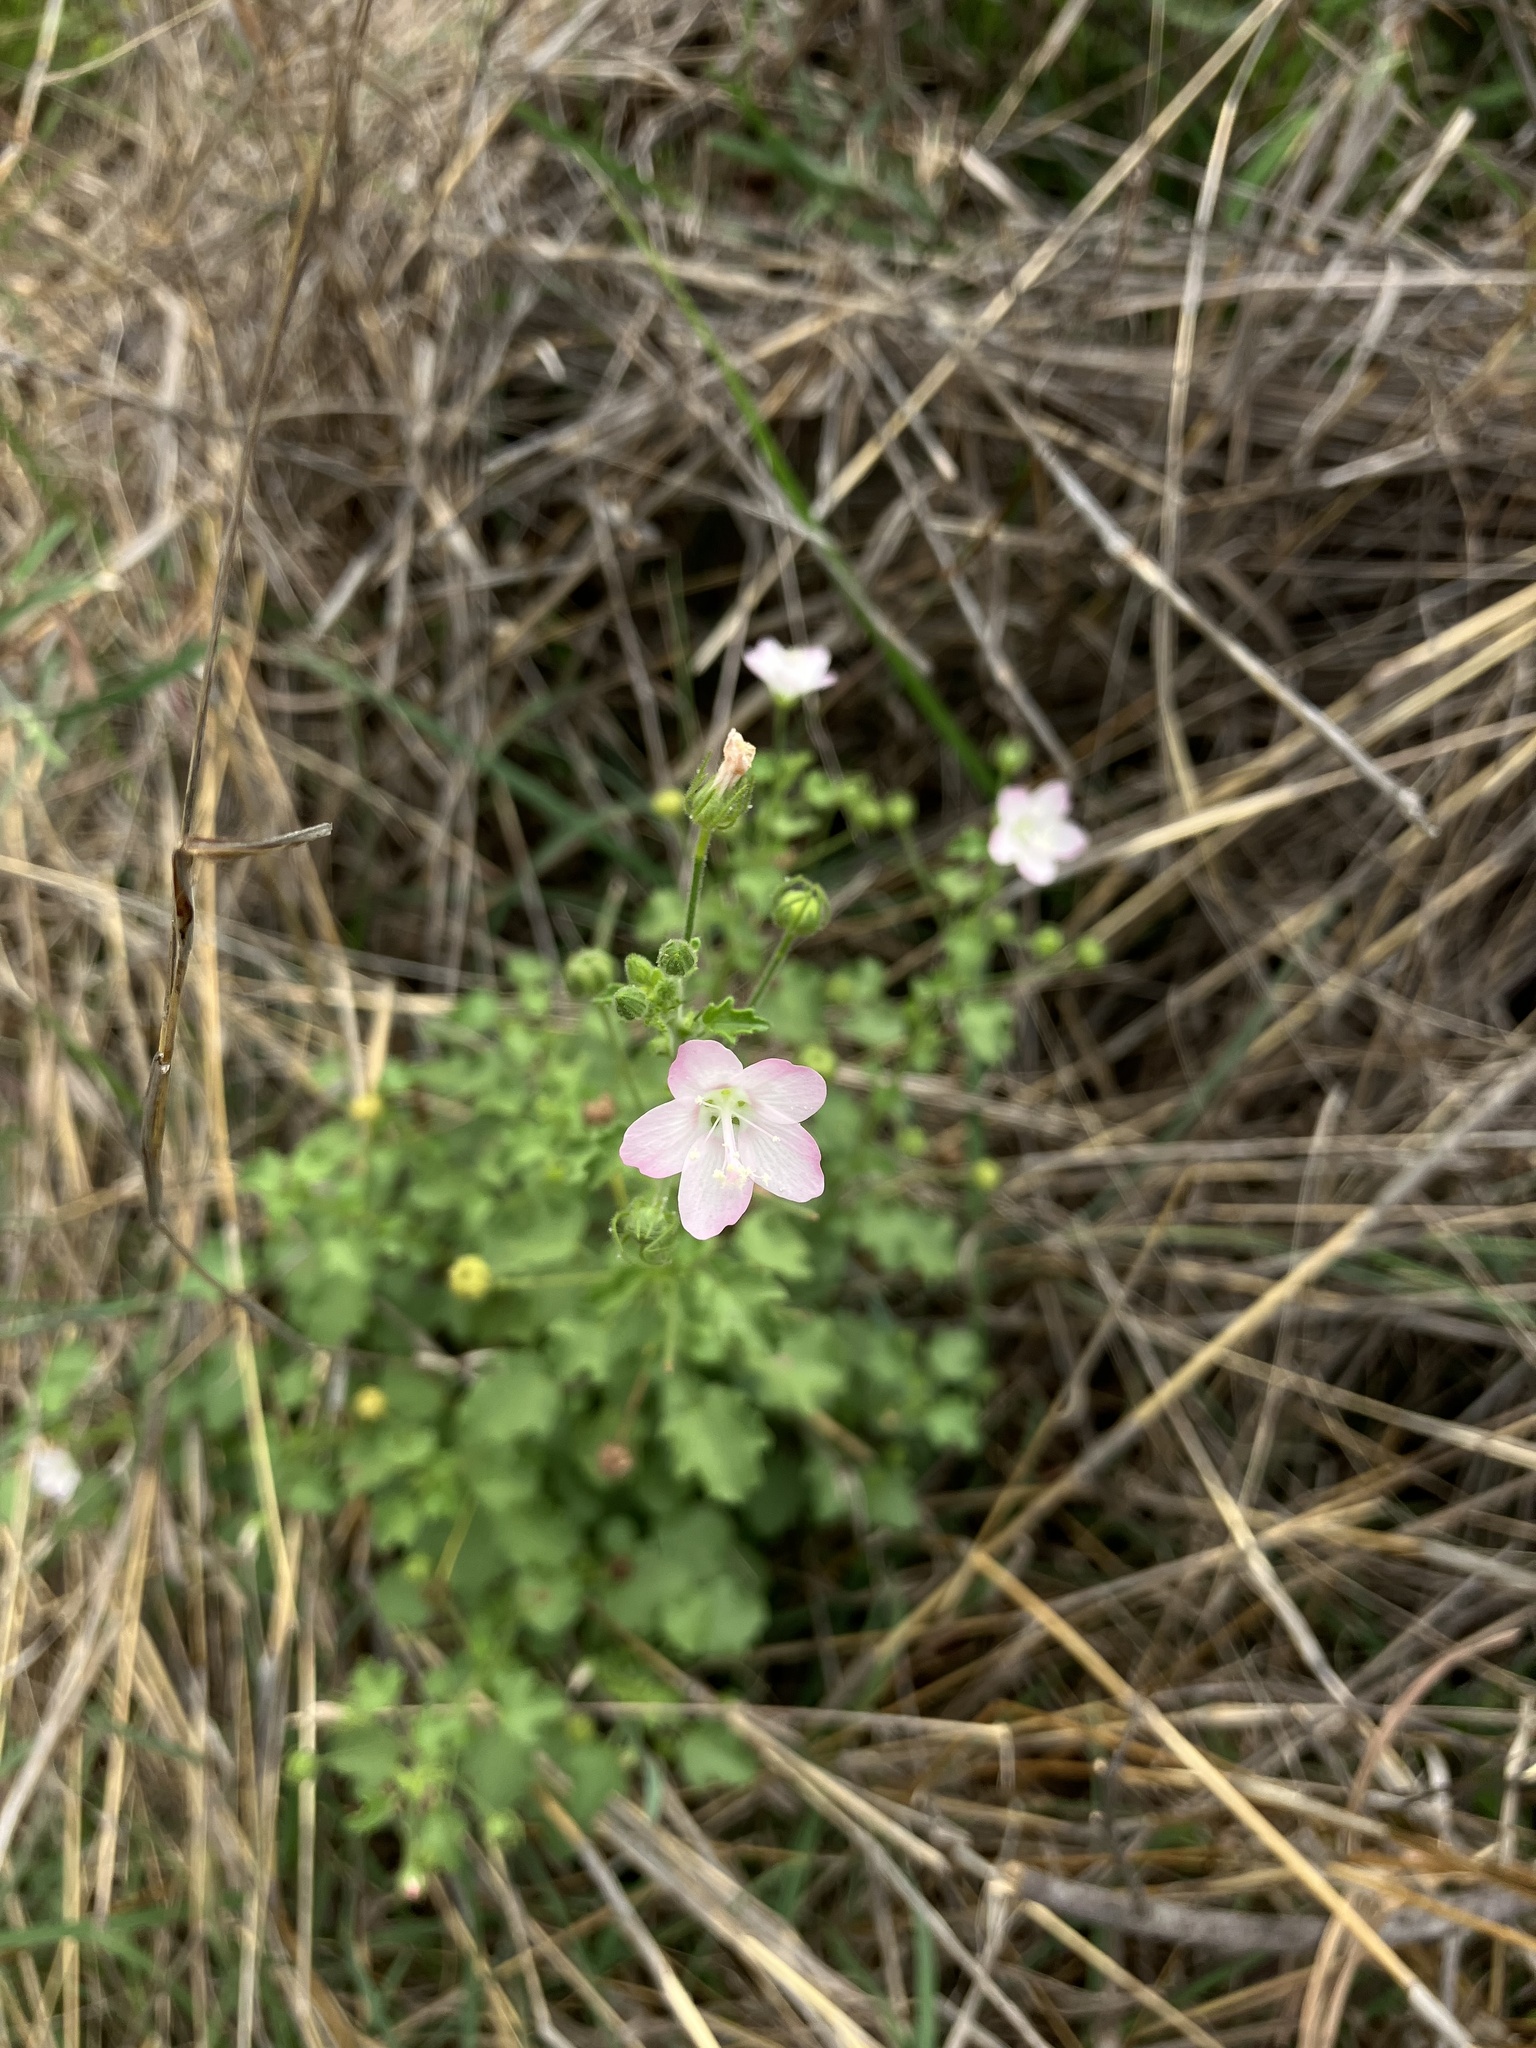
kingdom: Plantae
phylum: Tracheophyta
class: Magnoliopsida
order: Malvales
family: Malvaceae
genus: Pavonia
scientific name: Pavonia zeylanica
